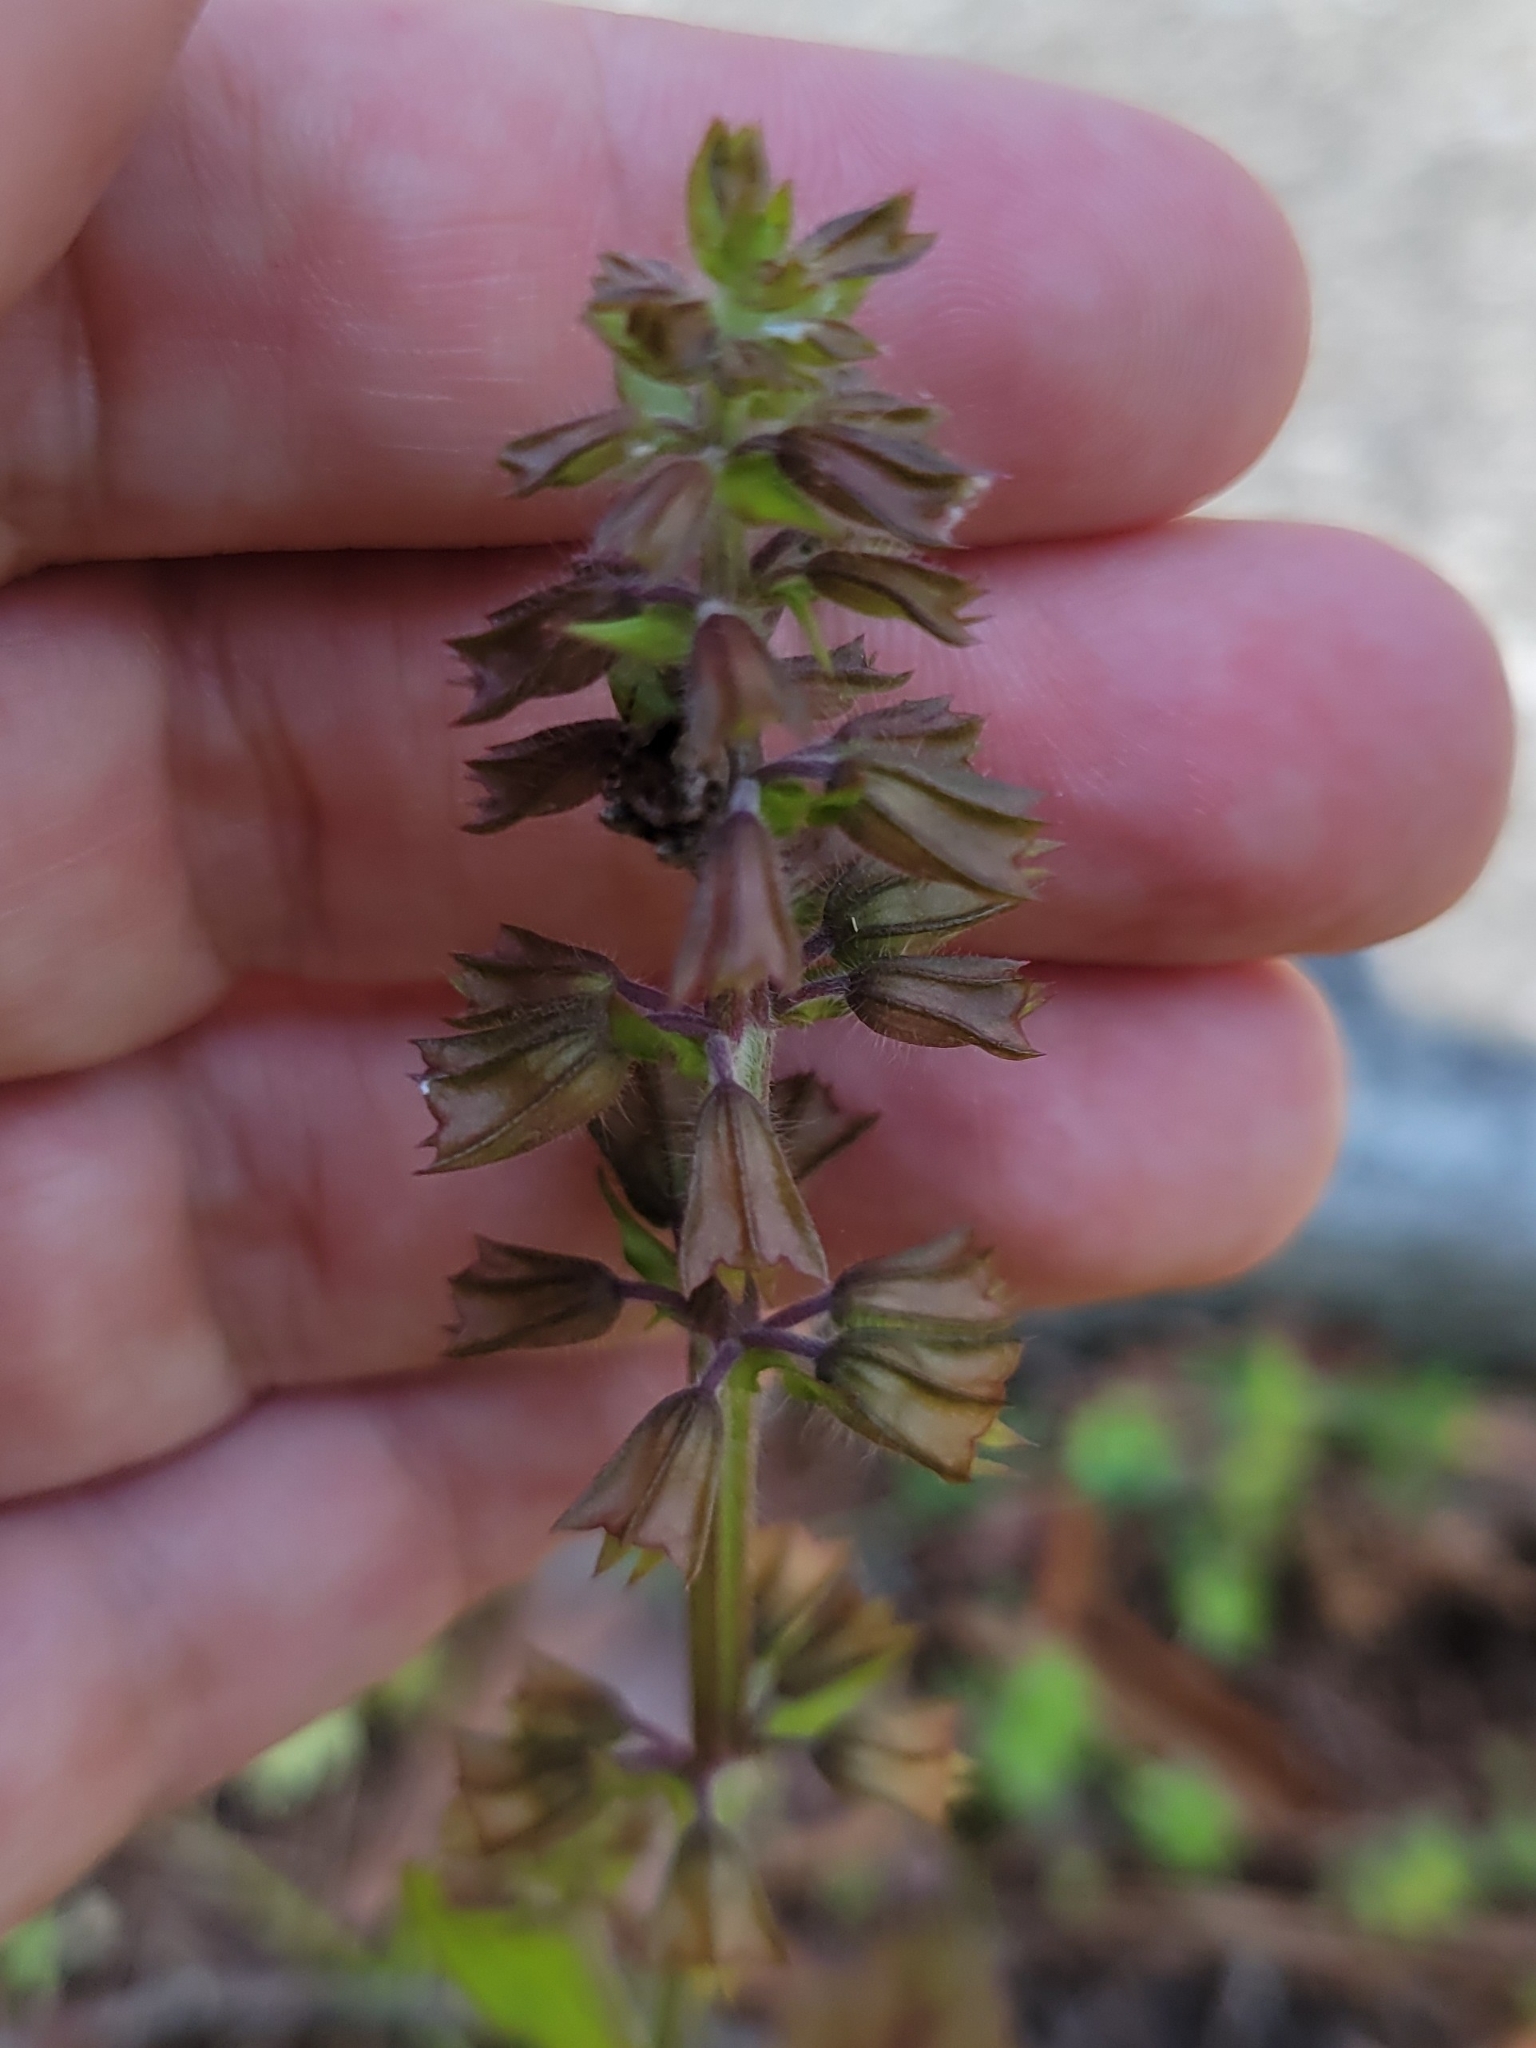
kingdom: Plantae
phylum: Tracheophyta
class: Magnoliopsida
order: Lamiales
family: Lamiaceae
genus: Salvia
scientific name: Salvia lyrata
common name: Cancerweed
